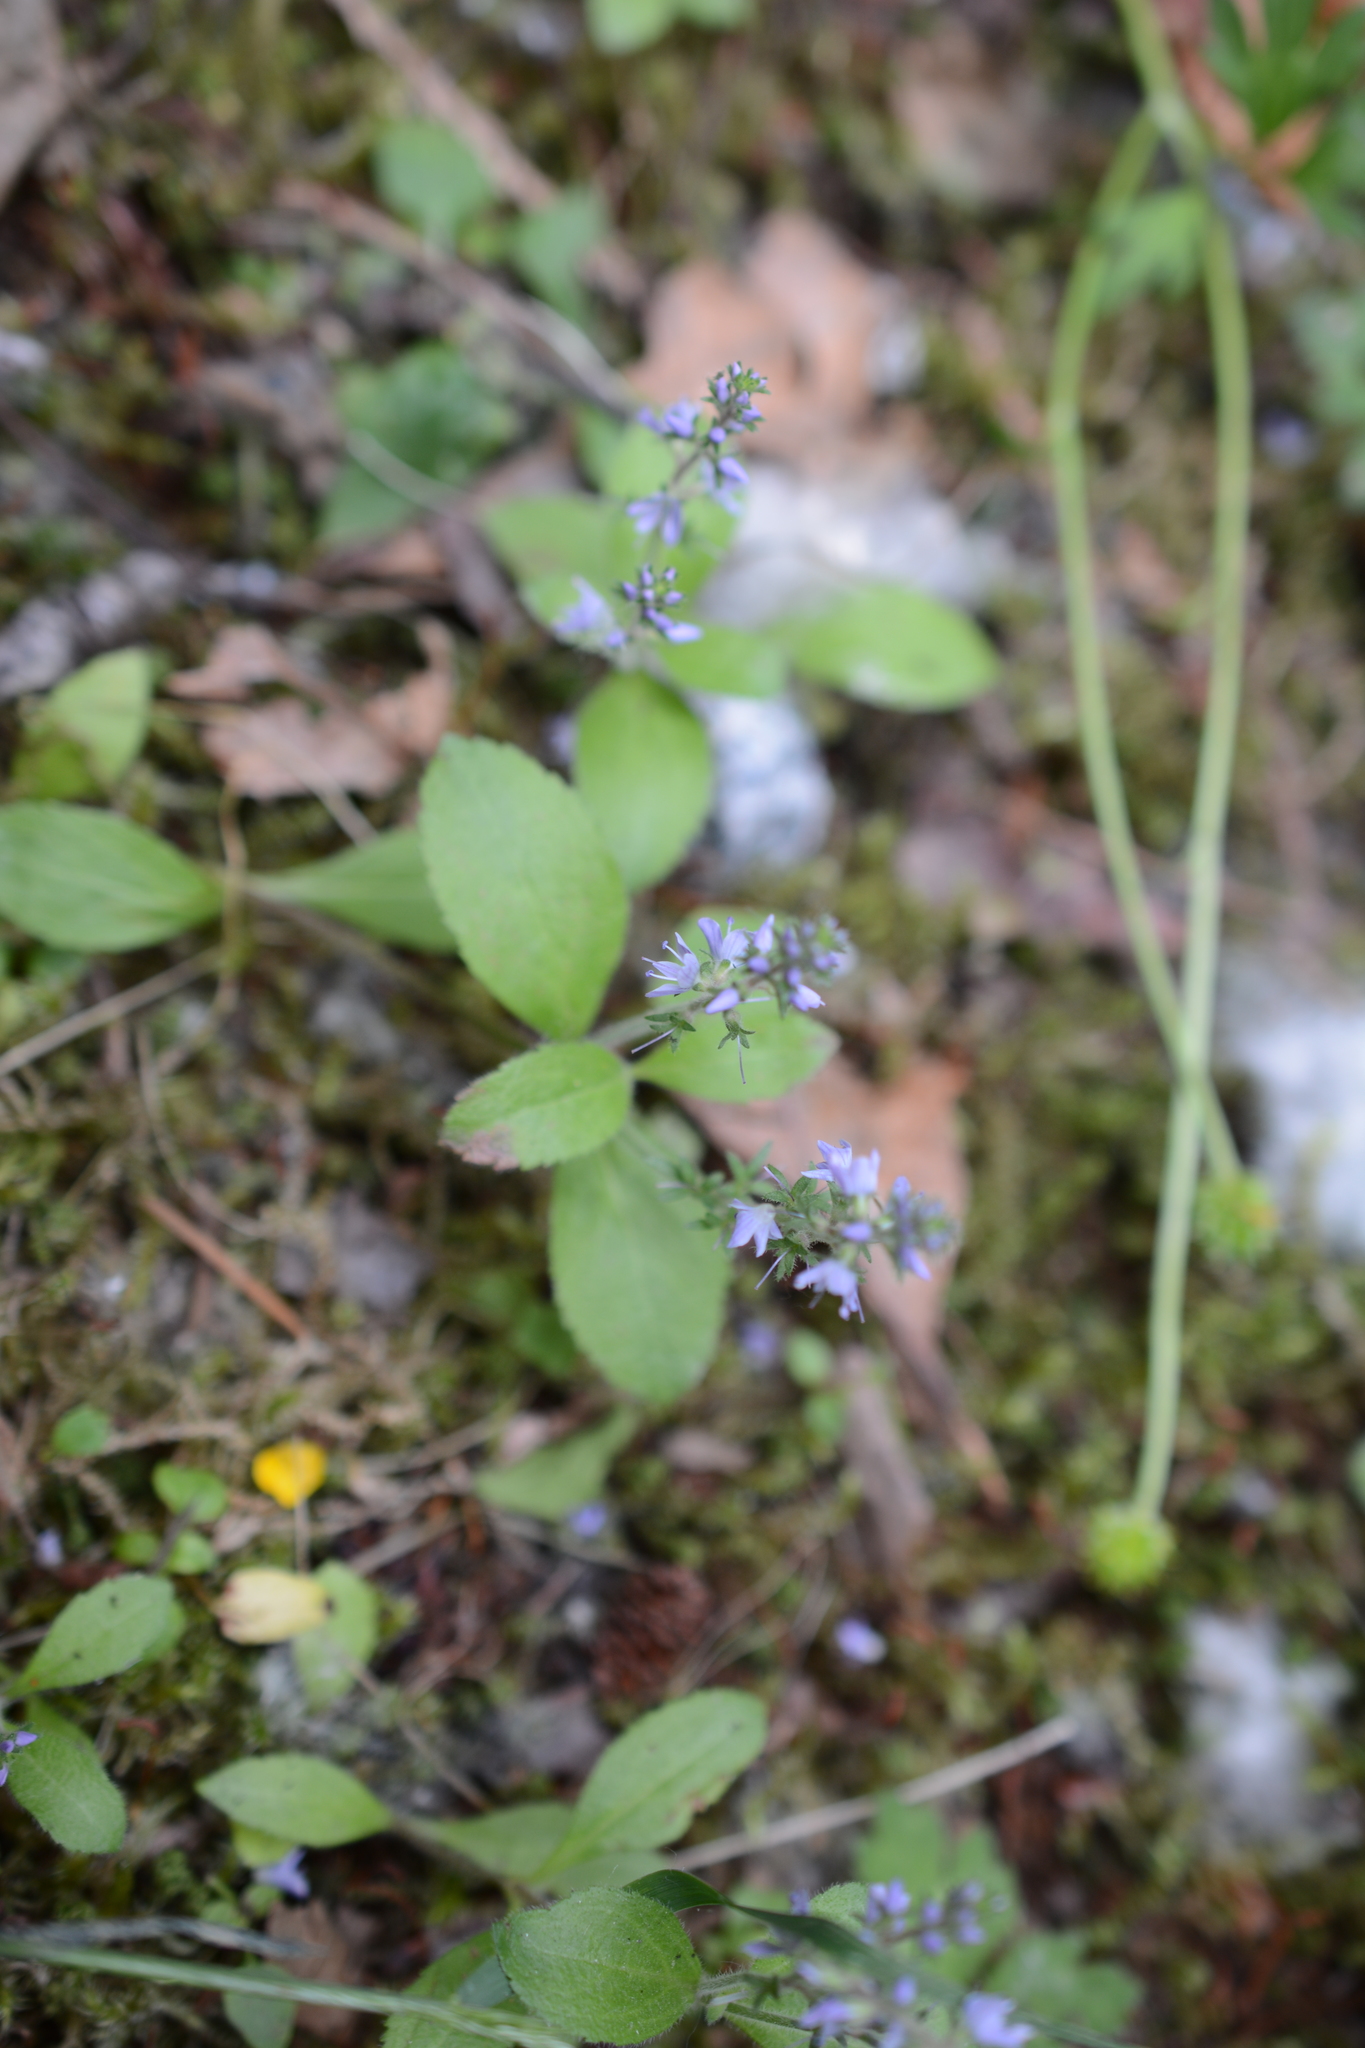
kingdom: Plantae
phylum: Tracheophyta
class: Magnoliopsida
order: Lamiales
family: Plantaginaceae
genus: Veronica
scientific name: Veronica officinalis
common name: Common speedwell
